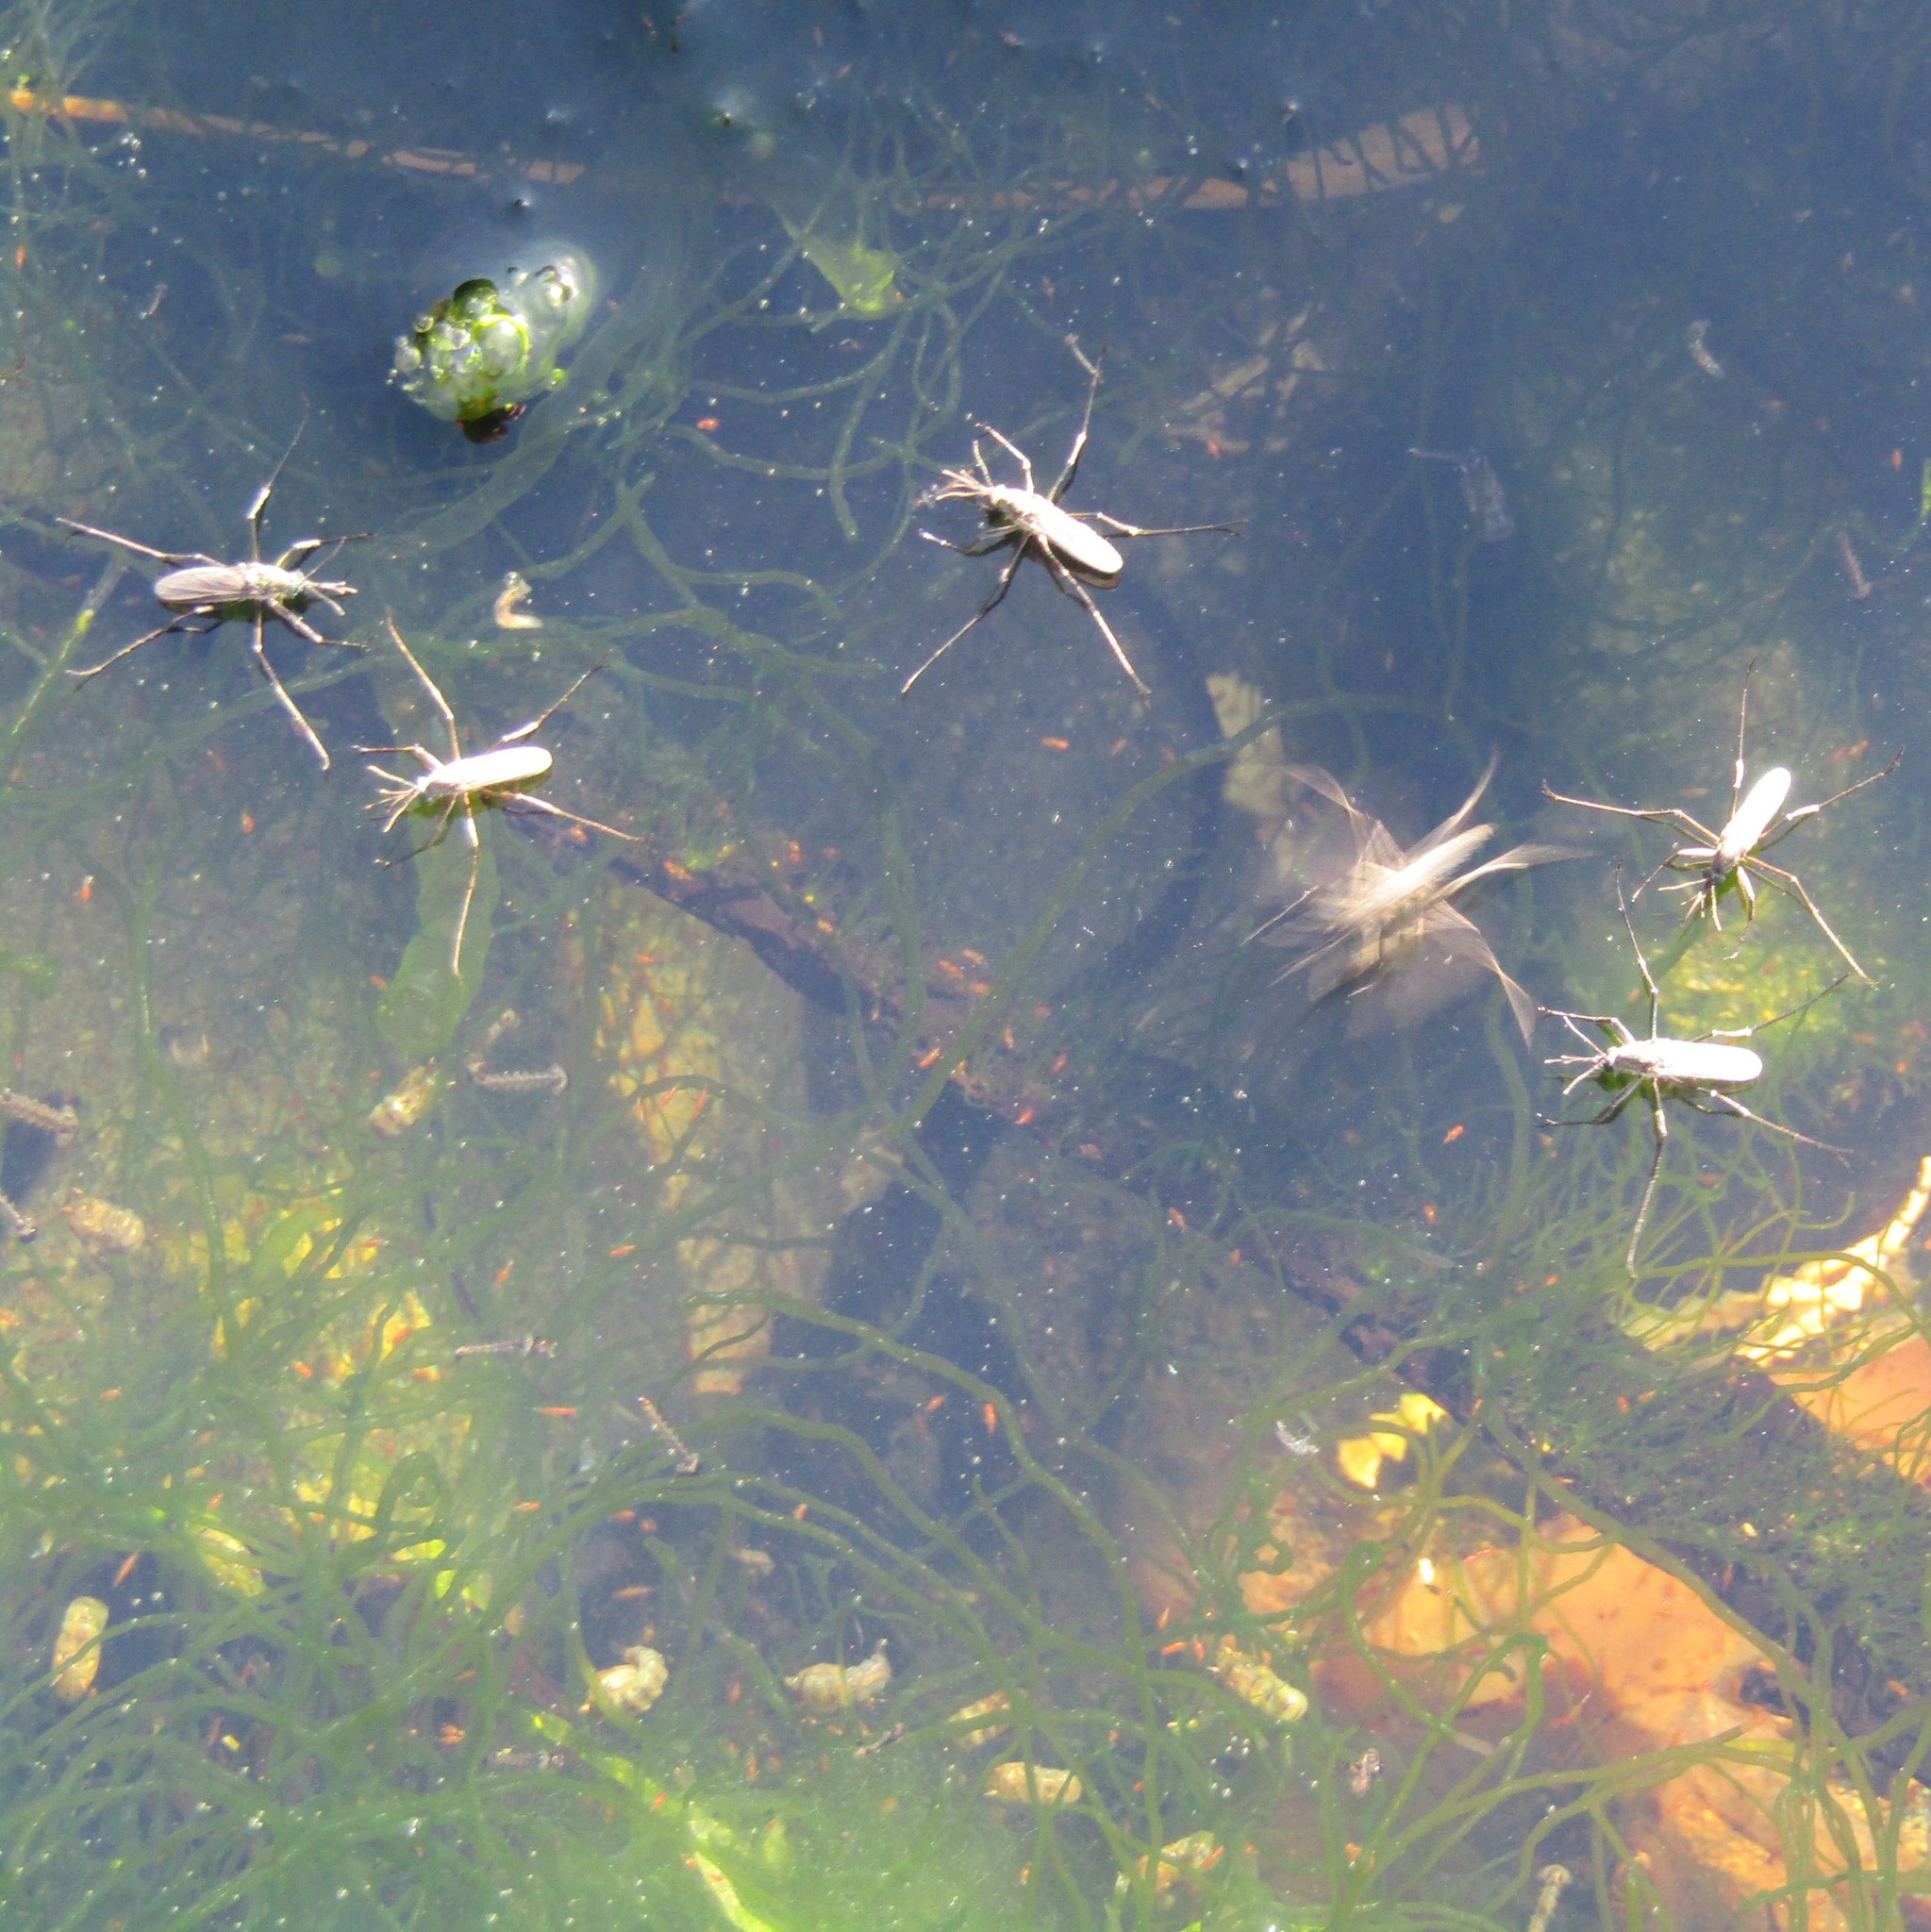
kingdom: Animalia
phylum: Arthropoda
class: Insecta
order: Diptera
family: Culicidae
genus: Opifex
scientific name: Opifex fuscus
